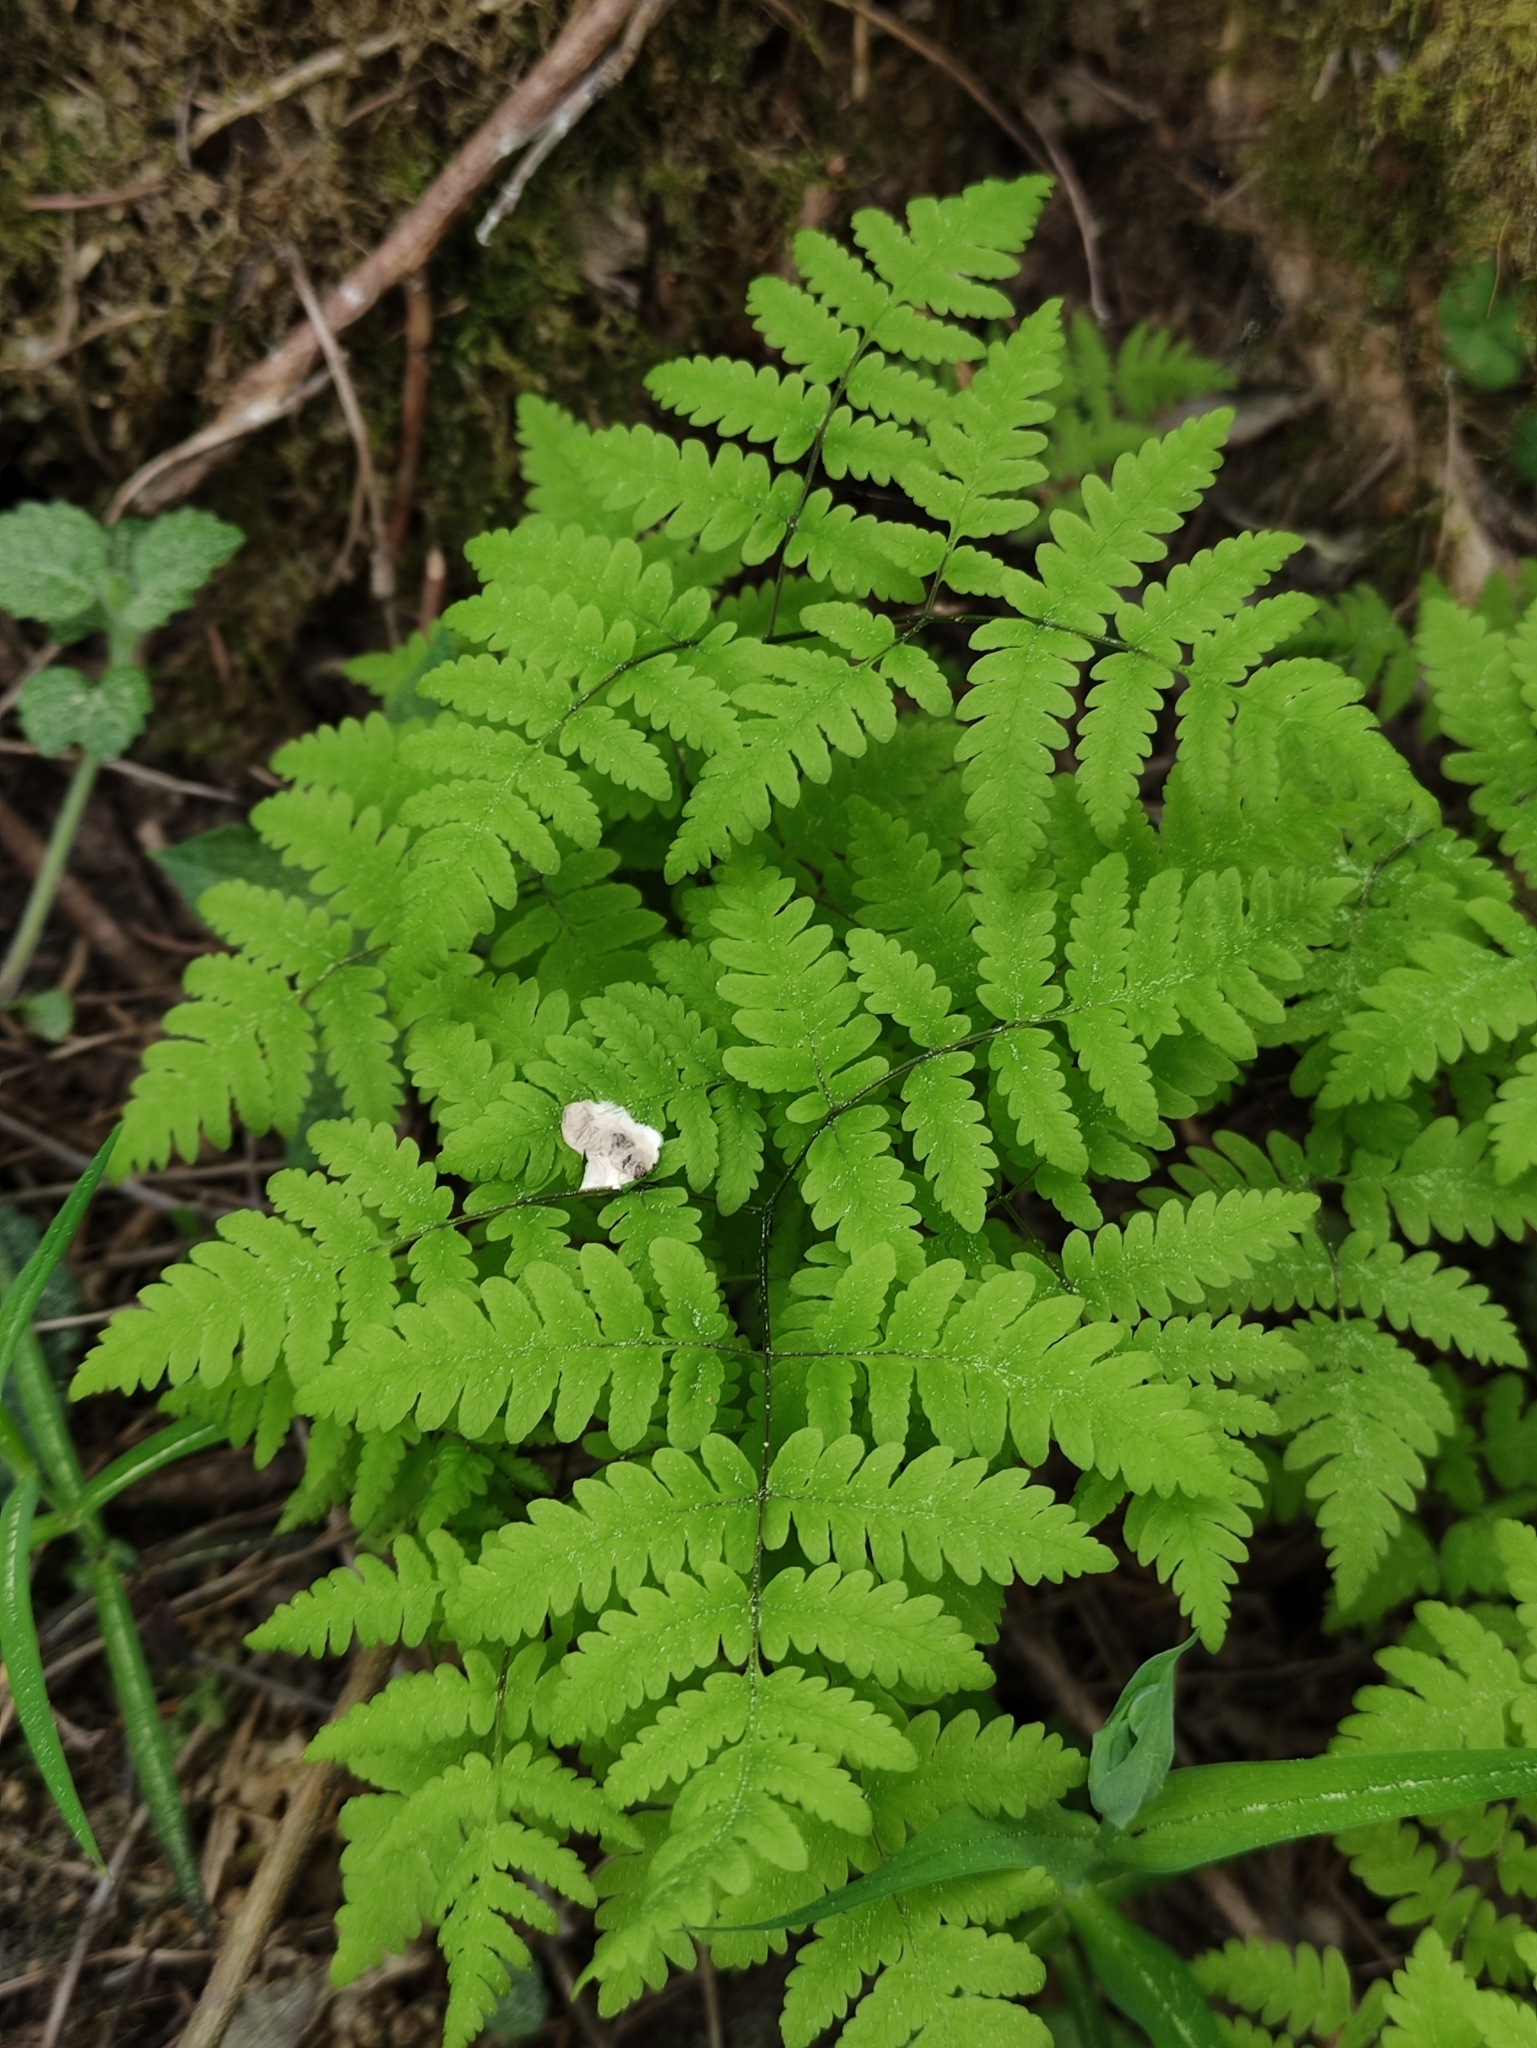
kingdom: Plantae
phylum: Tracheophyta
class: Polypodiopsida
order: Polypodiales
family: Cystopteridaceae
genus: Gymnocarpium
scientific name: Gymnocarpium dryopteris
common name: Oak fern
